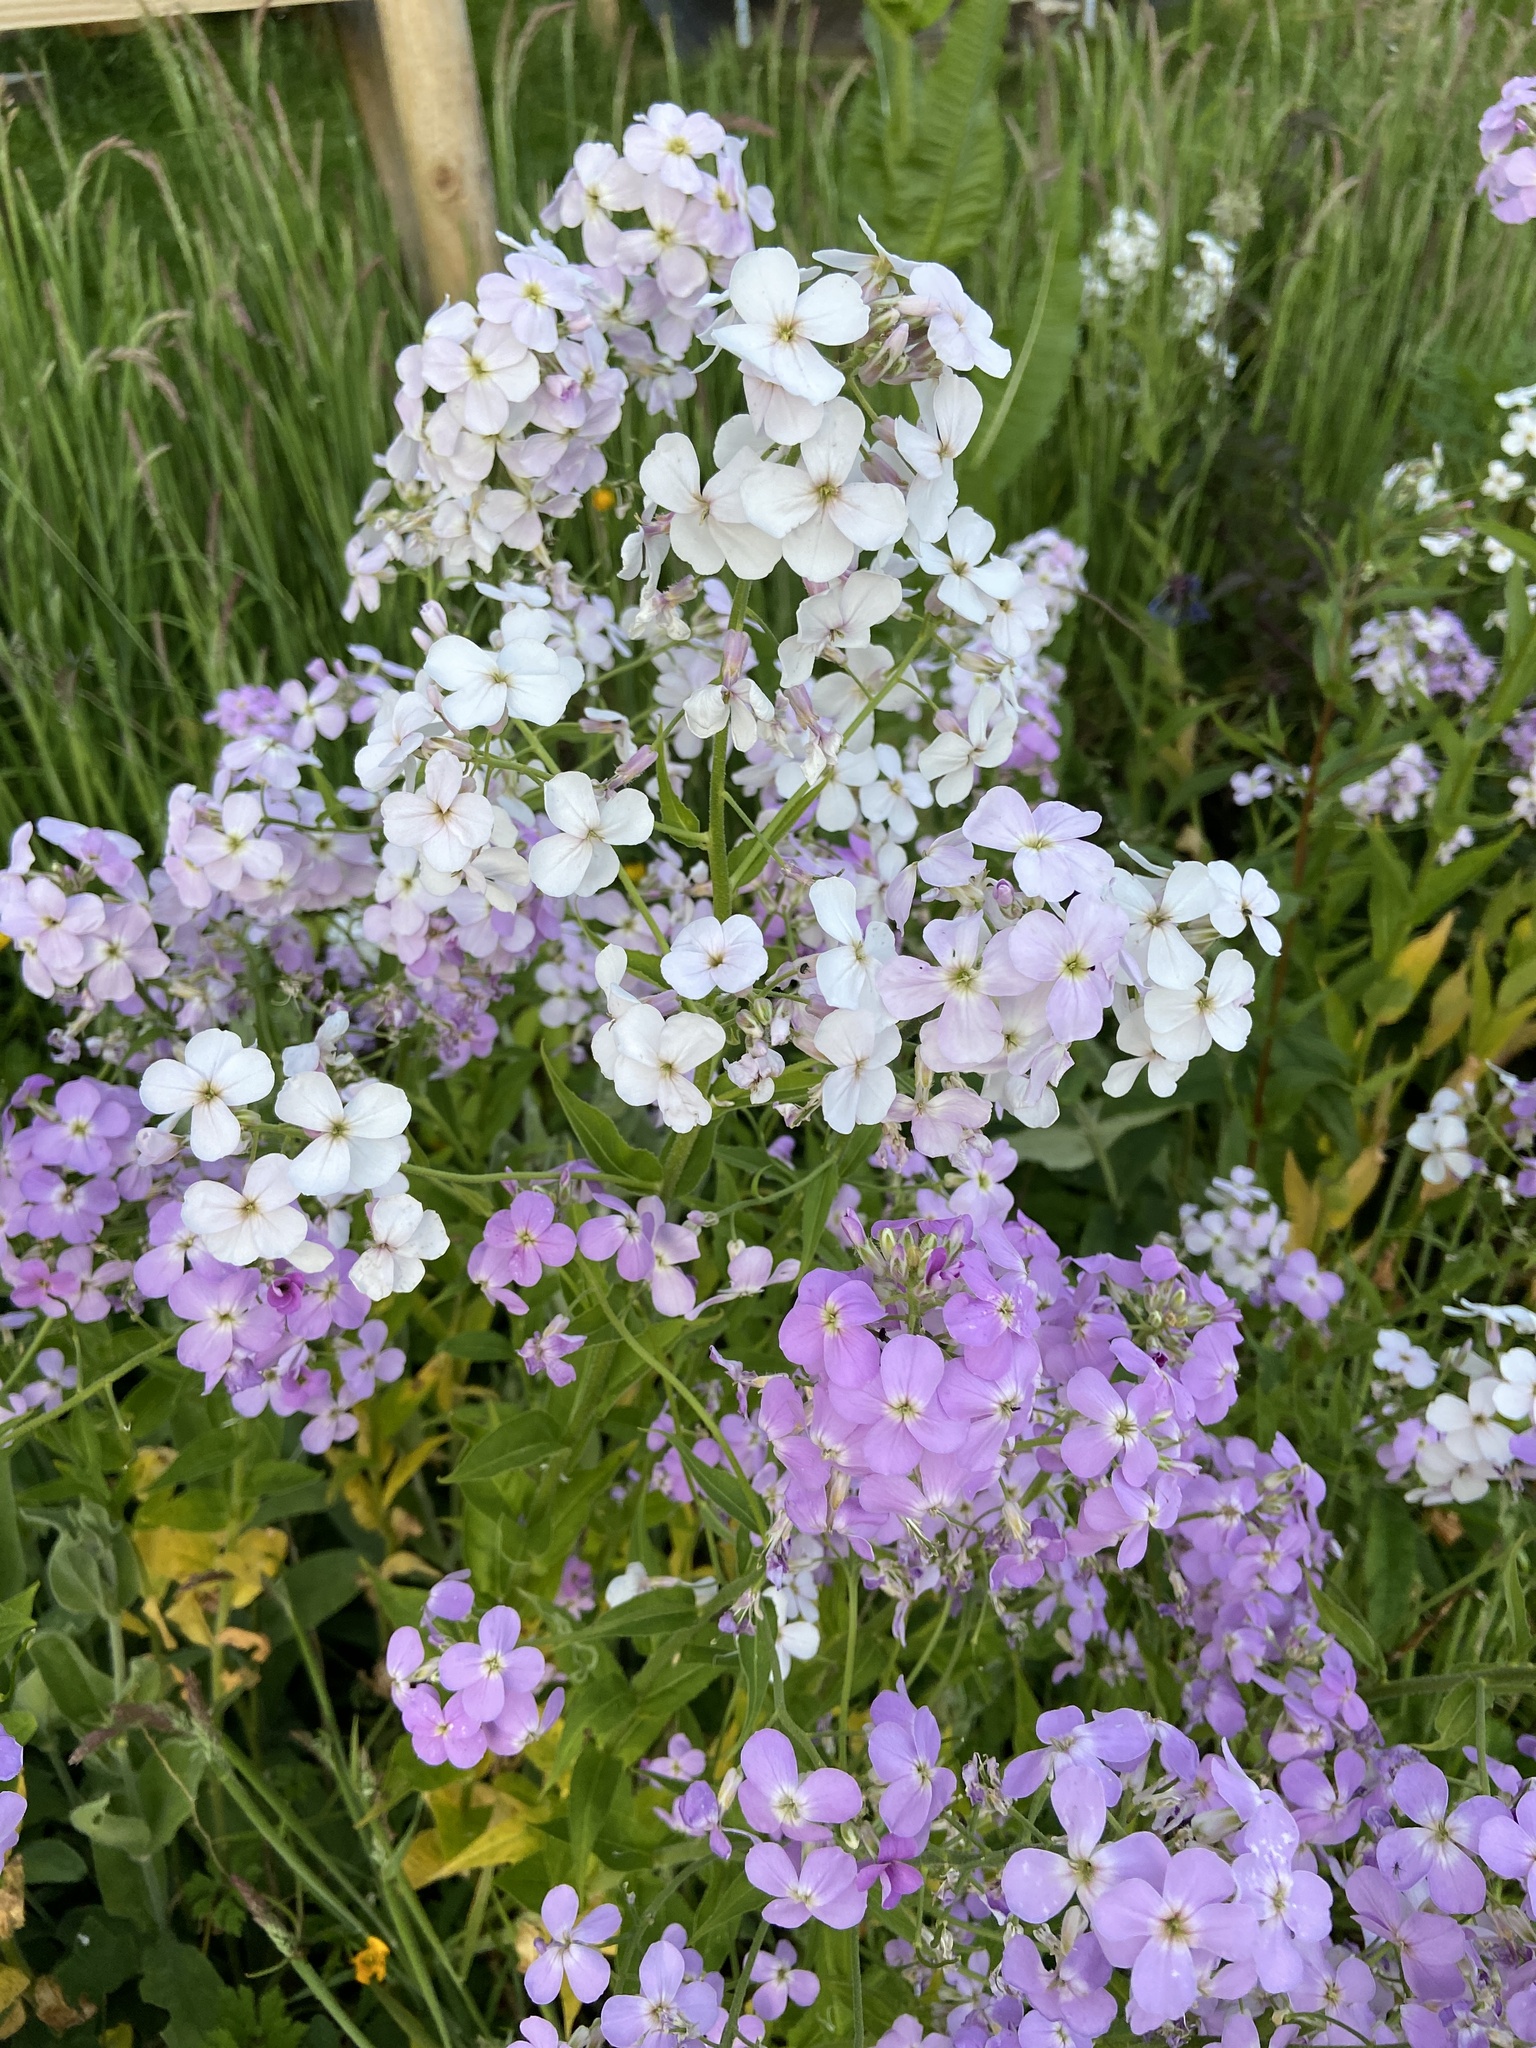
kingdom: Plantae
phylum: Tracheophyta
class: Magnoliopsida
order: Brassicales
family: Brassicaceae
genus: Hesperis
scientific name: Hesperis matronalis
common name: Dame's-violet
